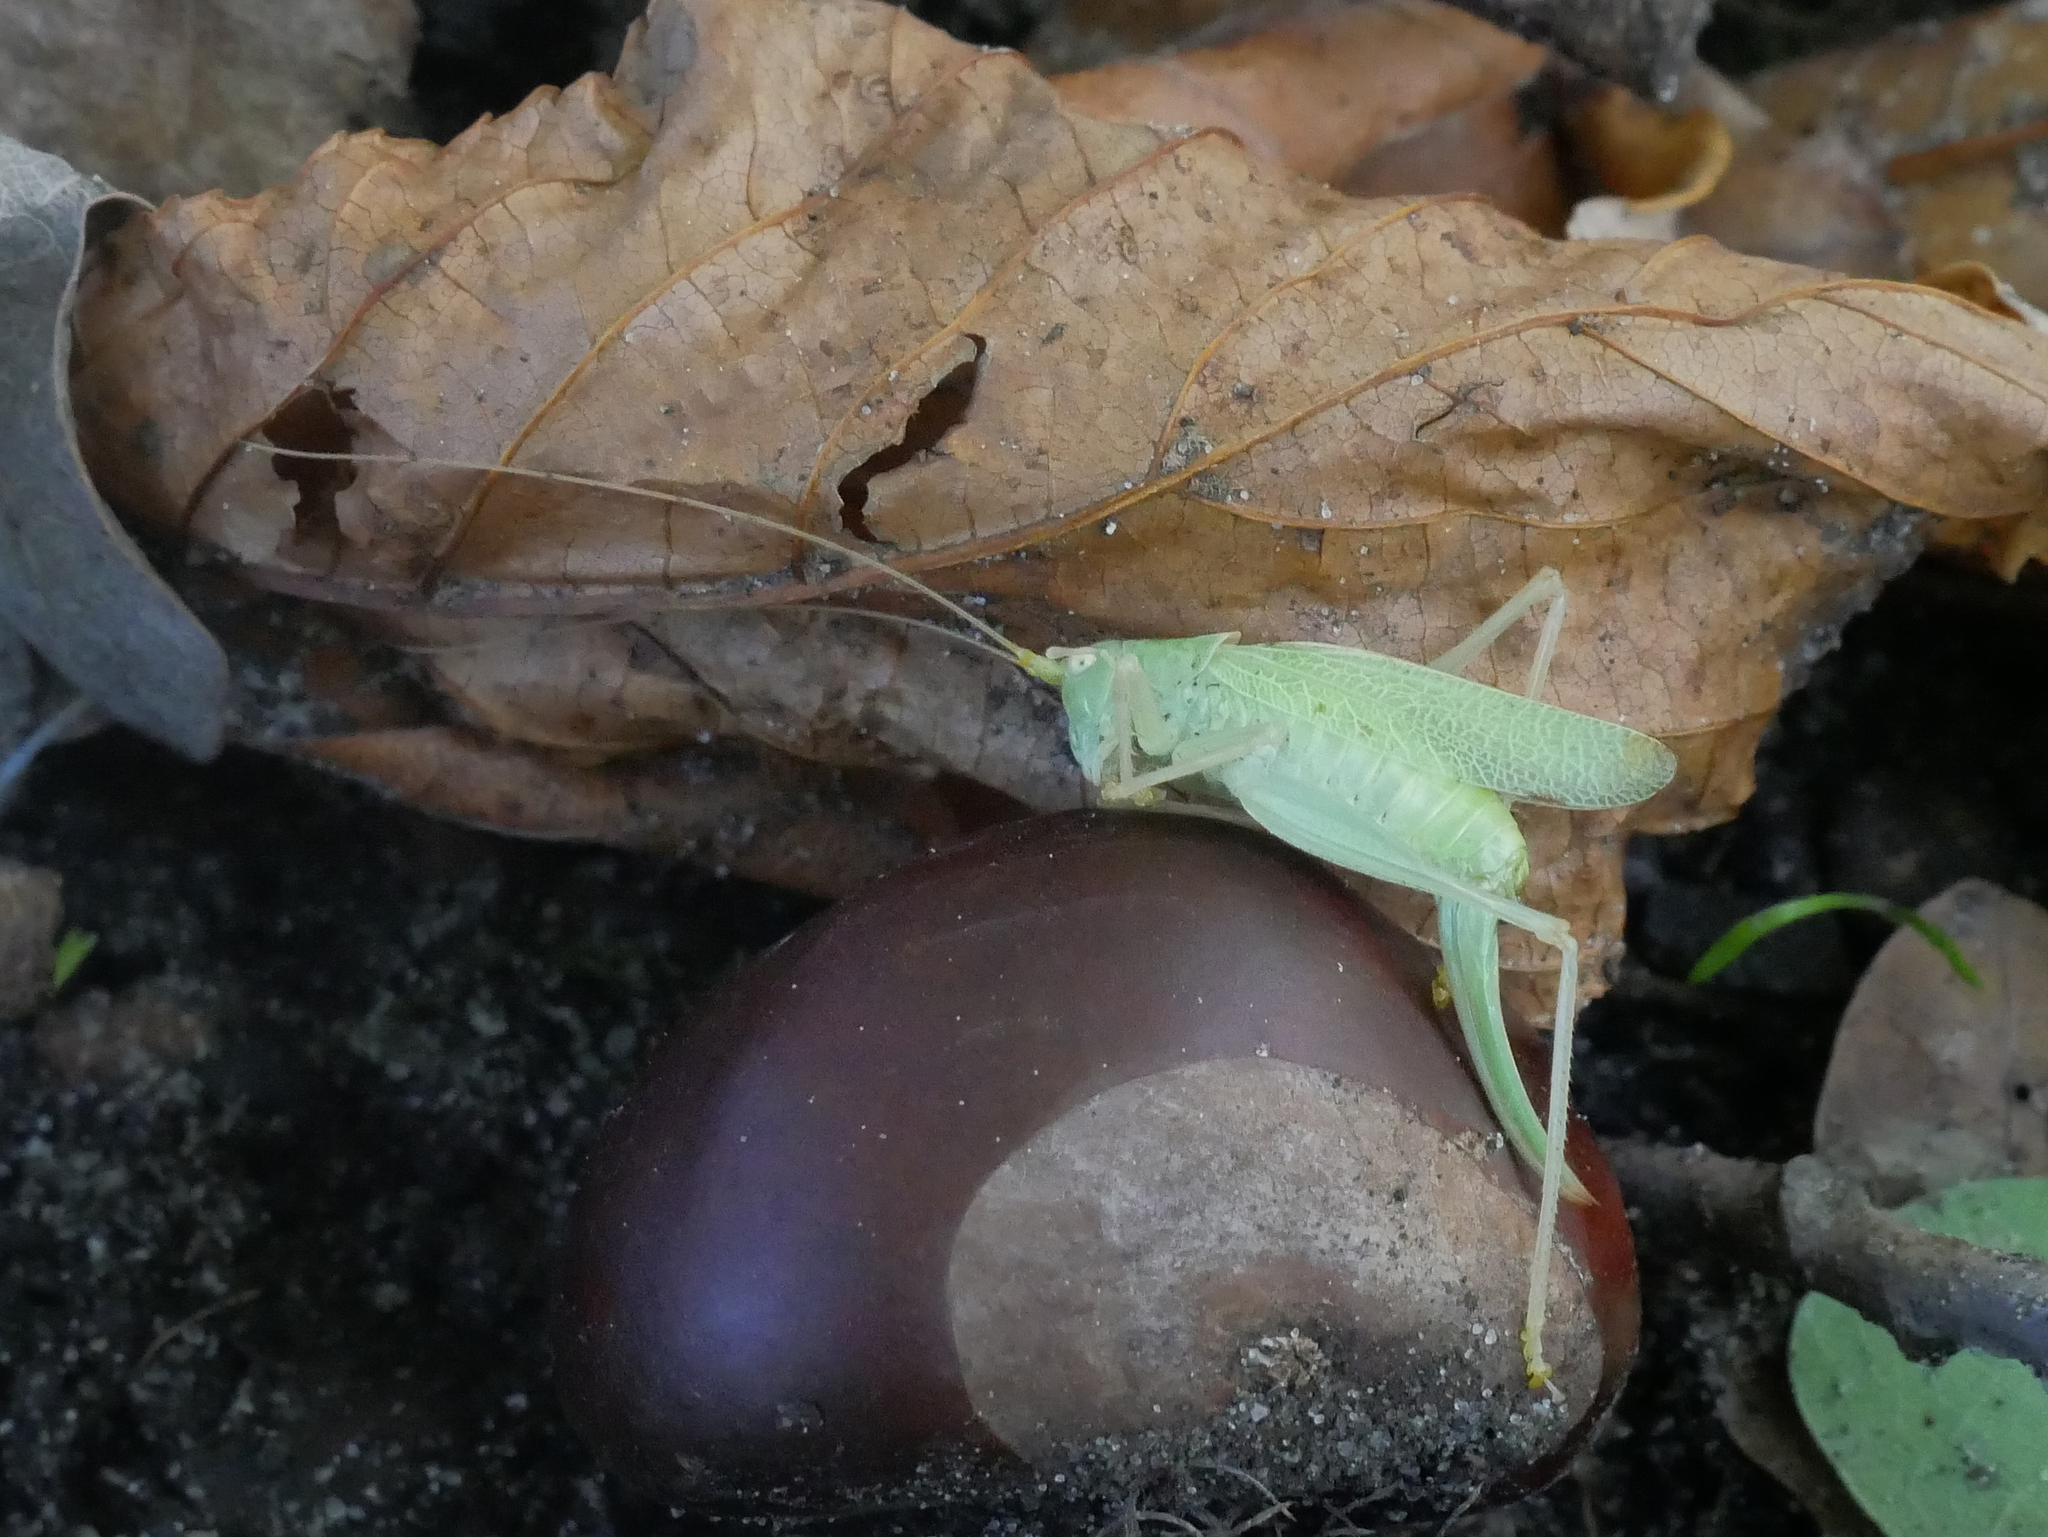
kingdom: Animalia
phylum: Arthropoda
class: Insecta
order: Orthoptera
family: Tettigoniidae
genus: Meconema
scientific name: Meconema thalassinum
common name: Oak bush-cricket
